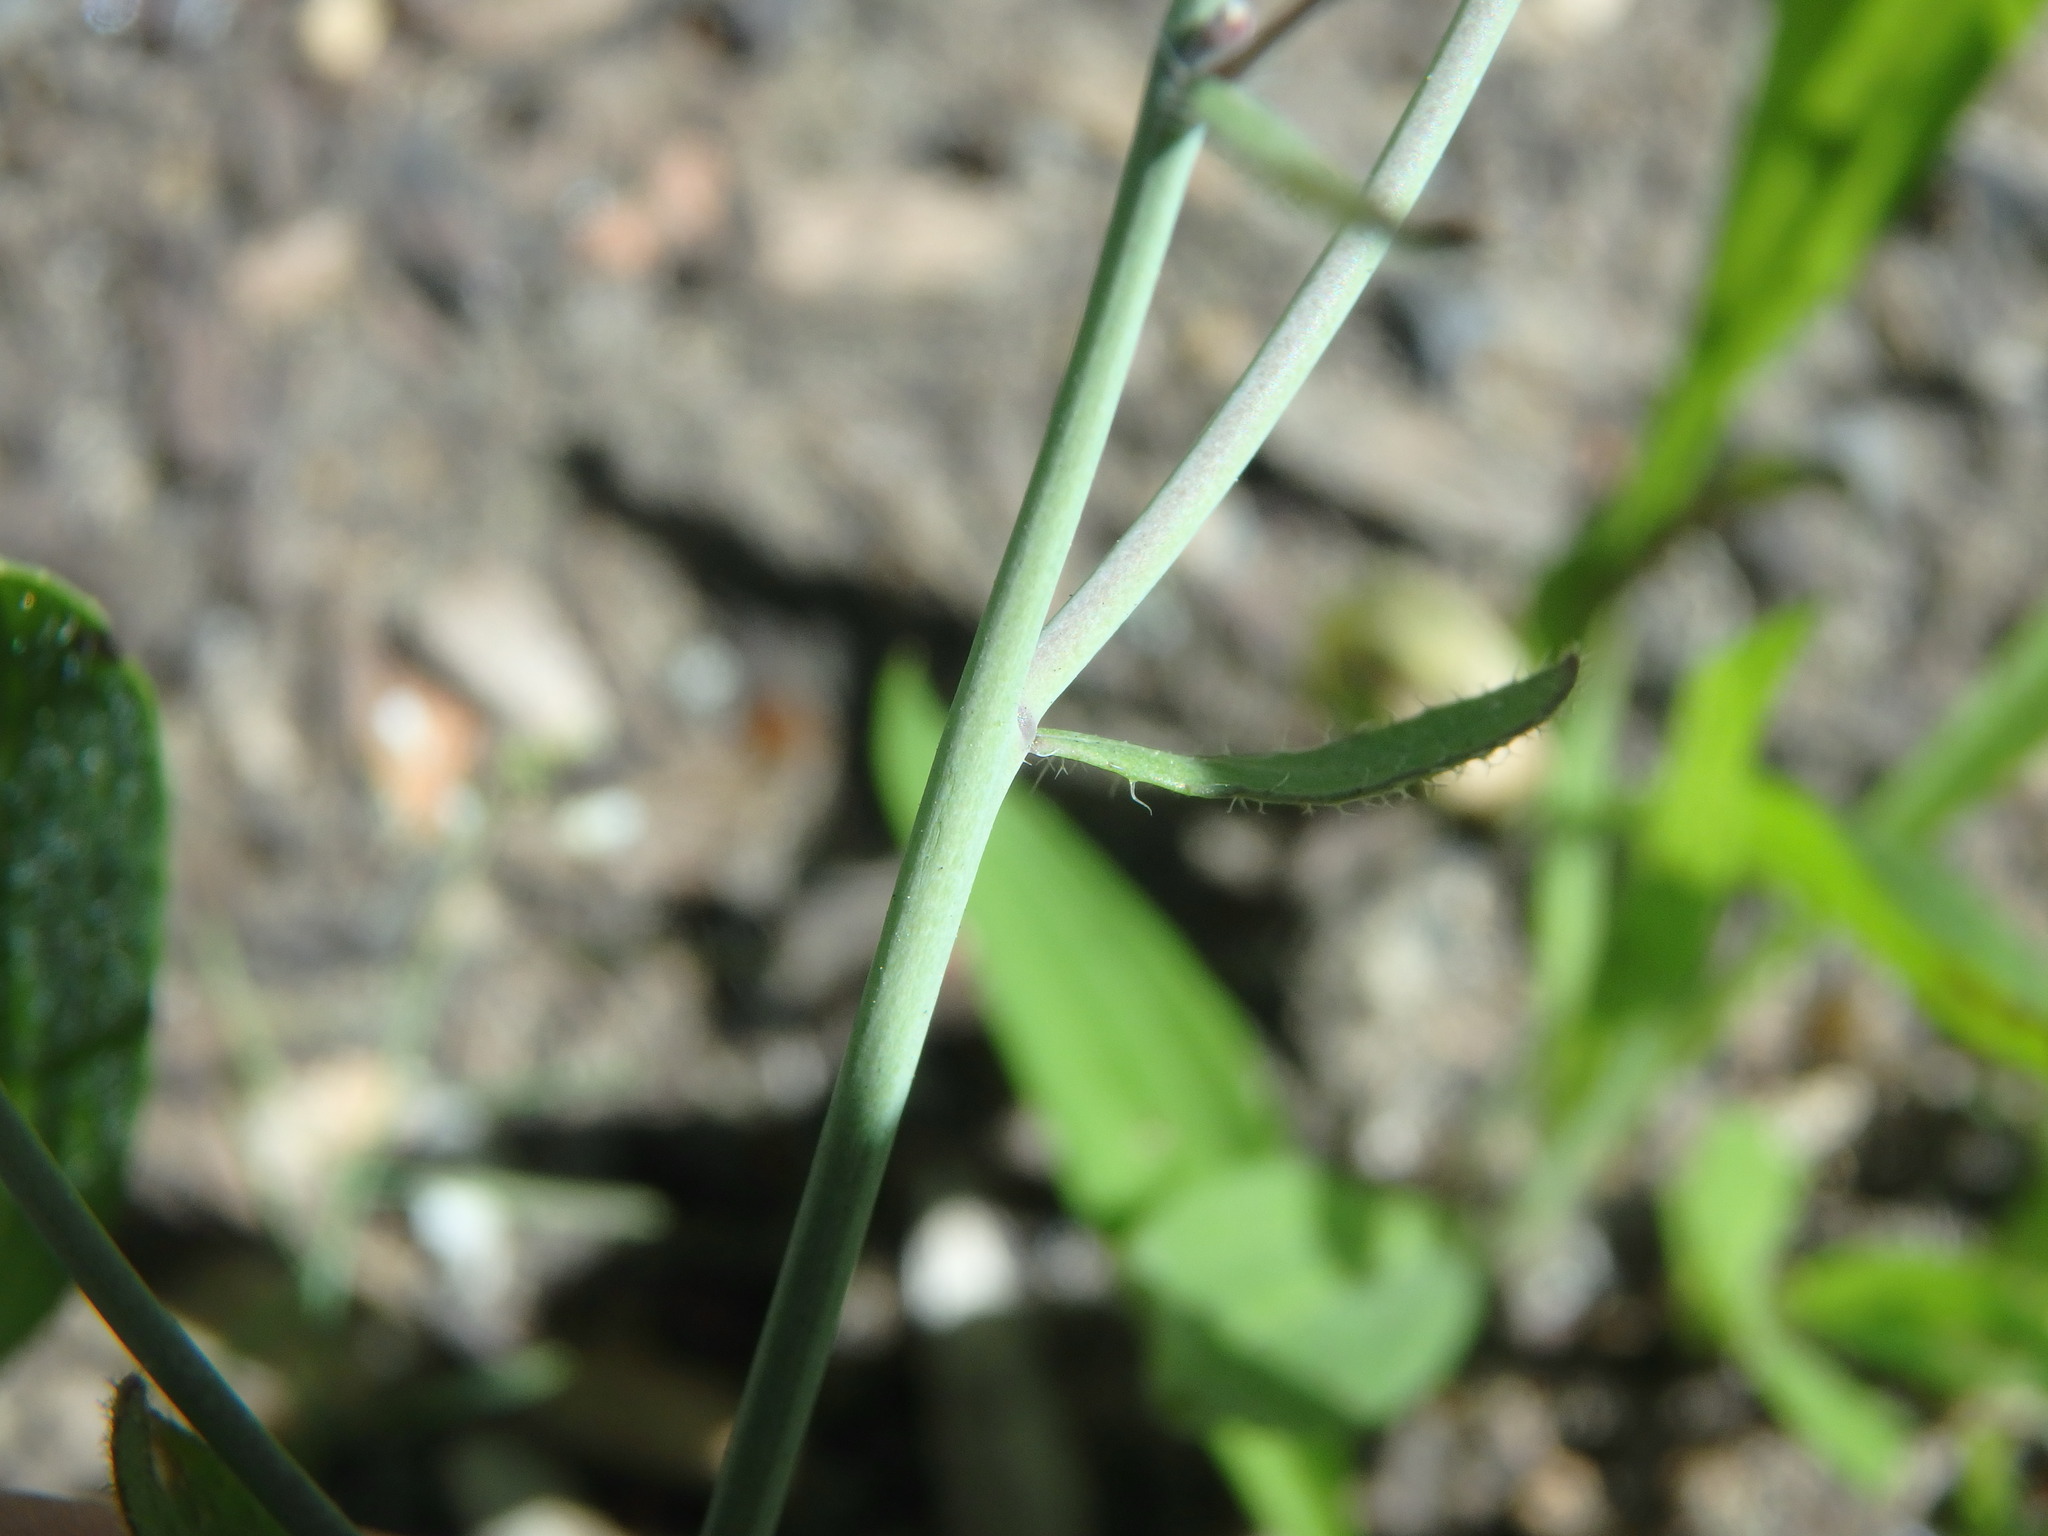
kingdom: Plantae
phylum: Tracheophyta
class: Magnoliopsida
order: Brassicales
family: Brassicaceae
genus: Arabidopsis
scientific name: Arabidopsis thaliana
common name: Thale cress
